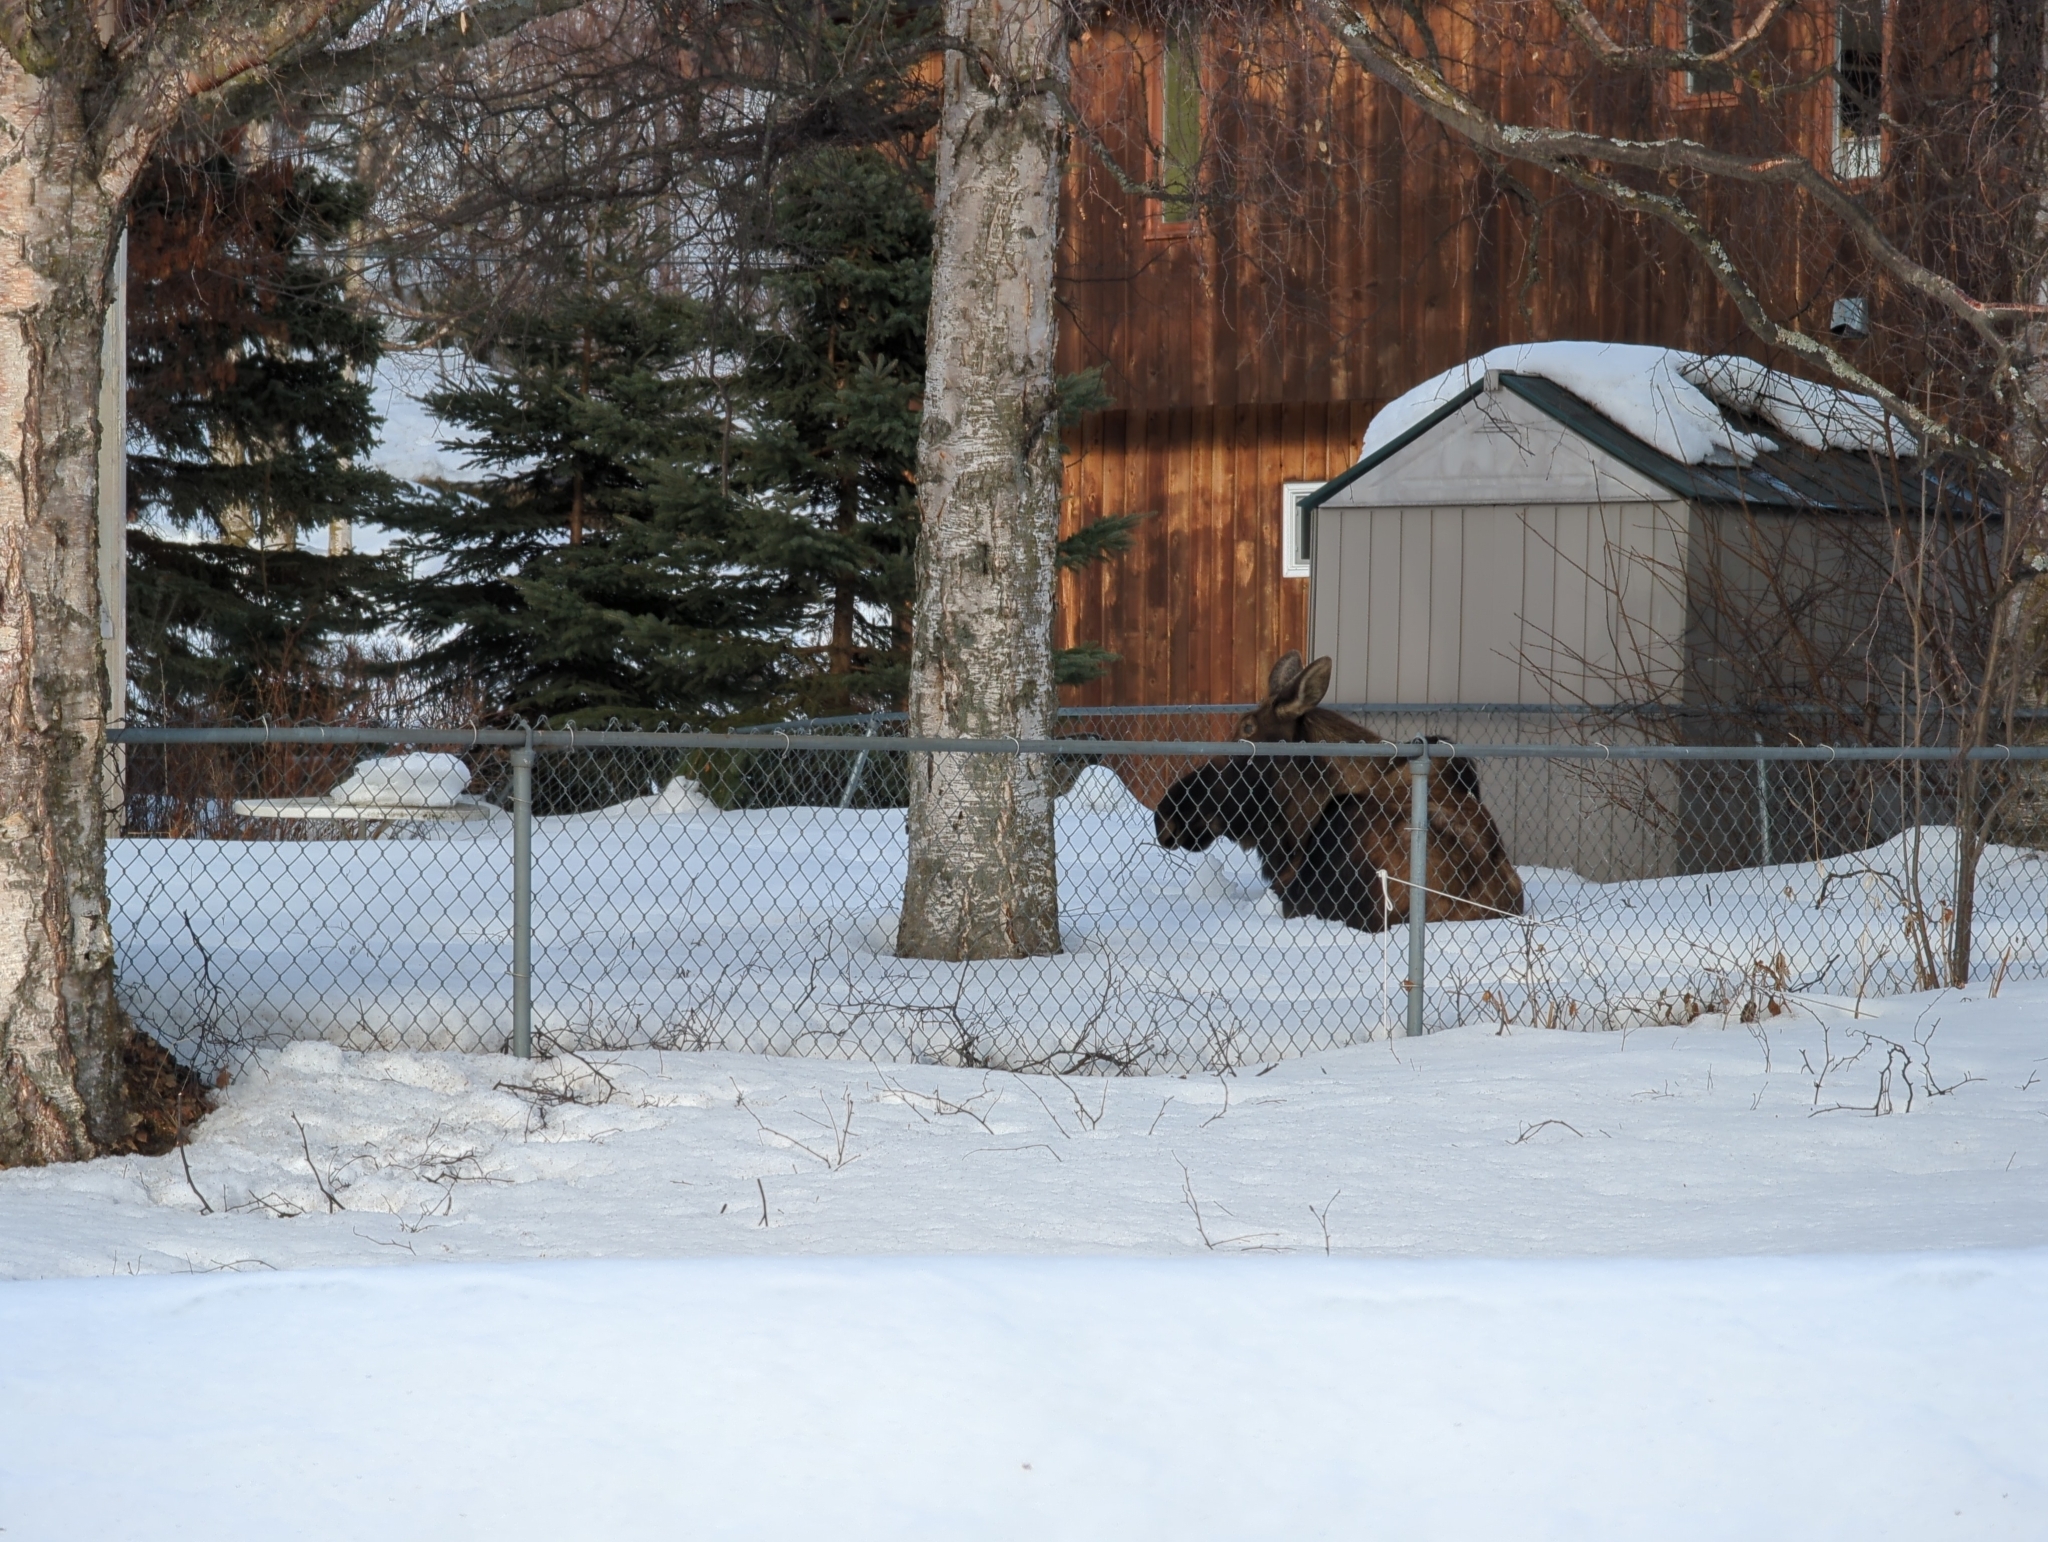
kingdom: Animalia
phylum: Chordata
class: Mammalia
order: Artiodactyla
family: Cervidae
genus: Alces
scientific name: Alces alces
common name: Moose
